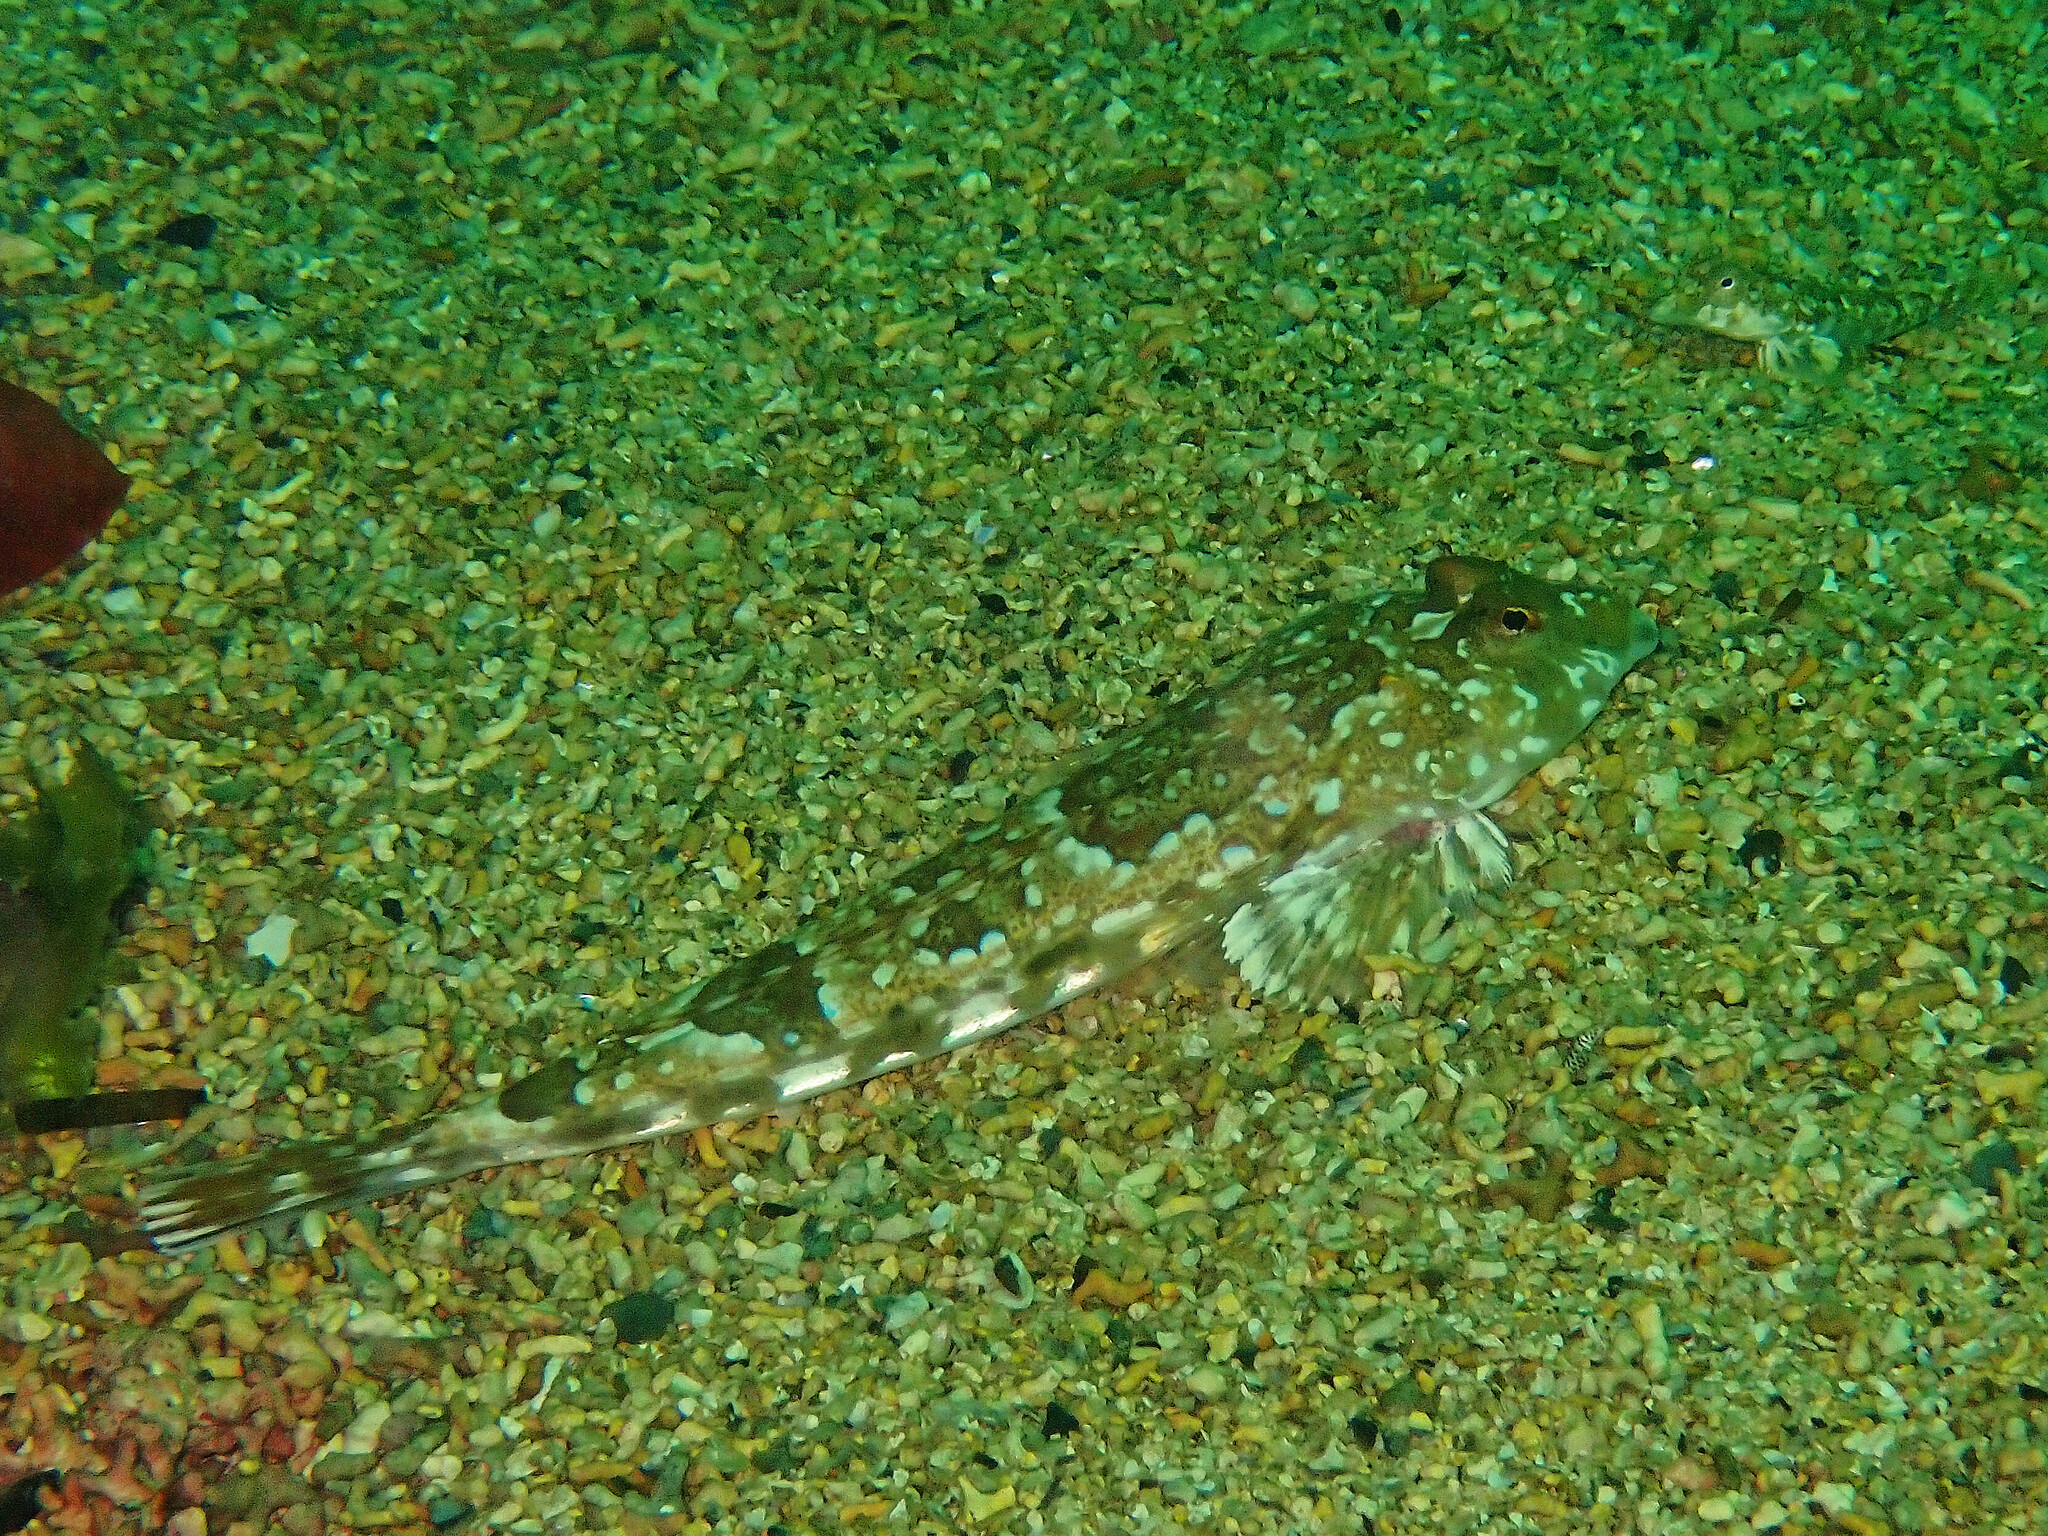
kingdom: Animalia
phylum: Chordata
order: Perciformes
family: Callionymidae
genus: Callionymus
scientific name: Callionymus lyra
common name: Dragonet
